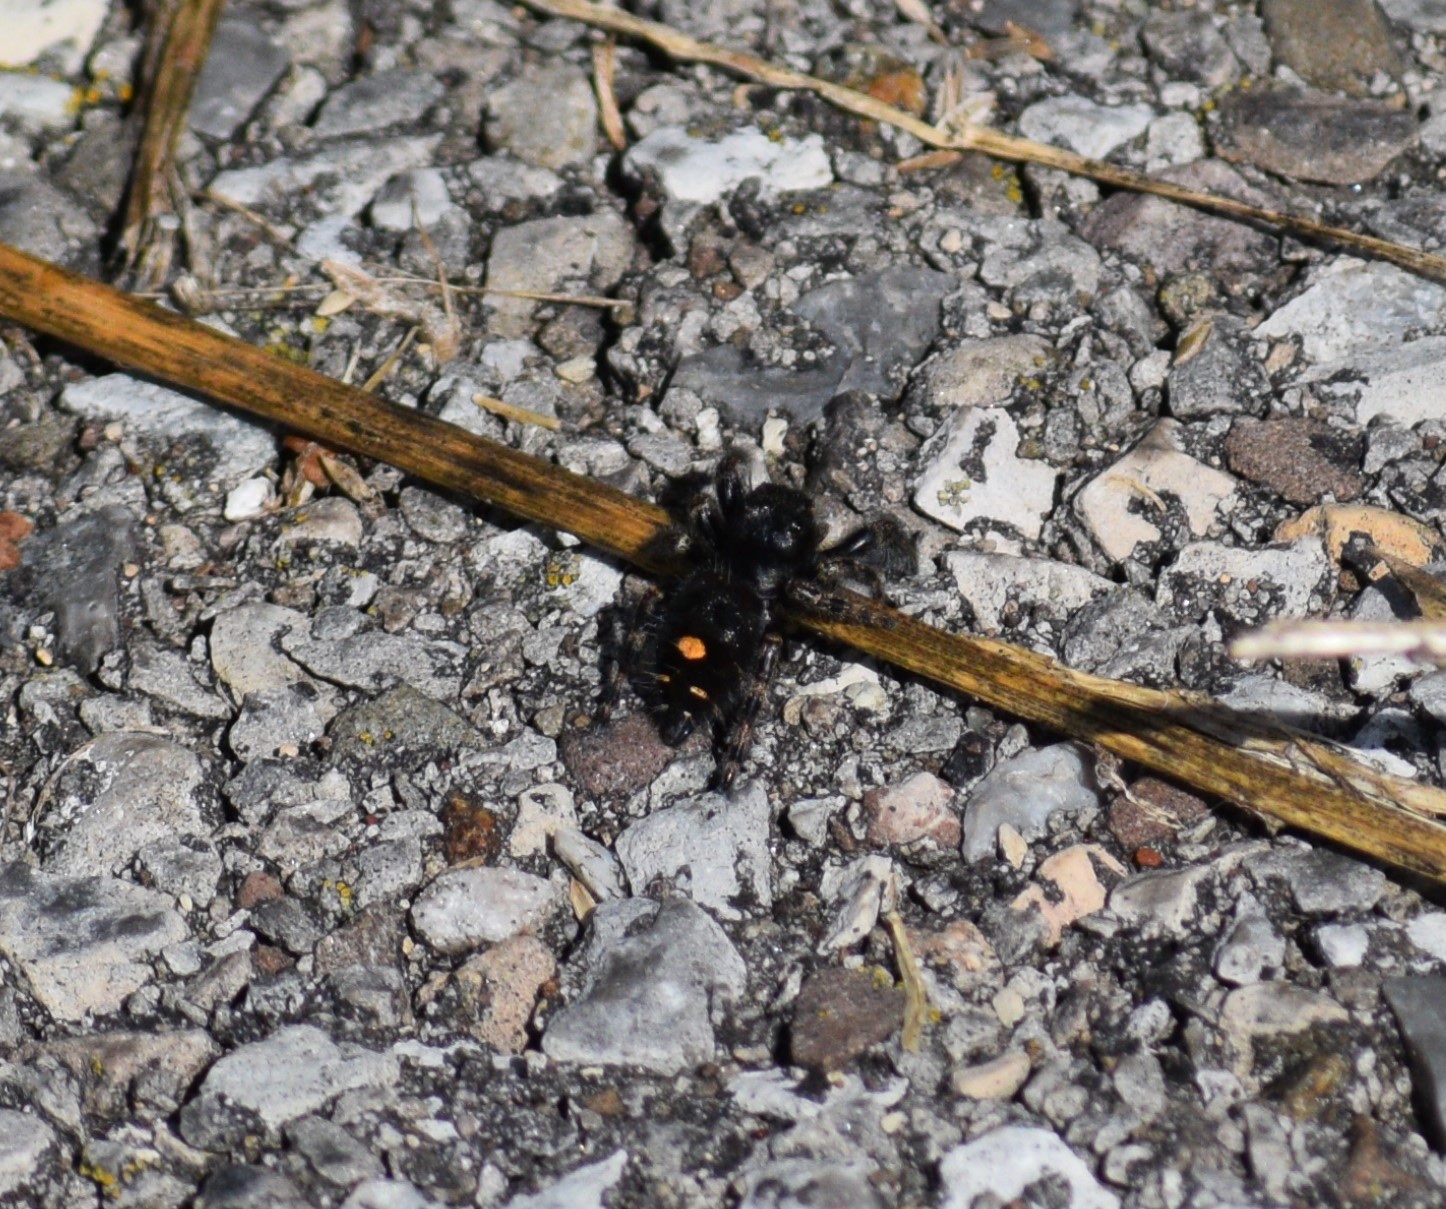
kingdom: Animalia
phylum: Arthropoda
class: Arachnida
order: Araneae
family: Salticidae
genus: Phidippus
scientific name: Phidippus audax
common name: Bold jumper
